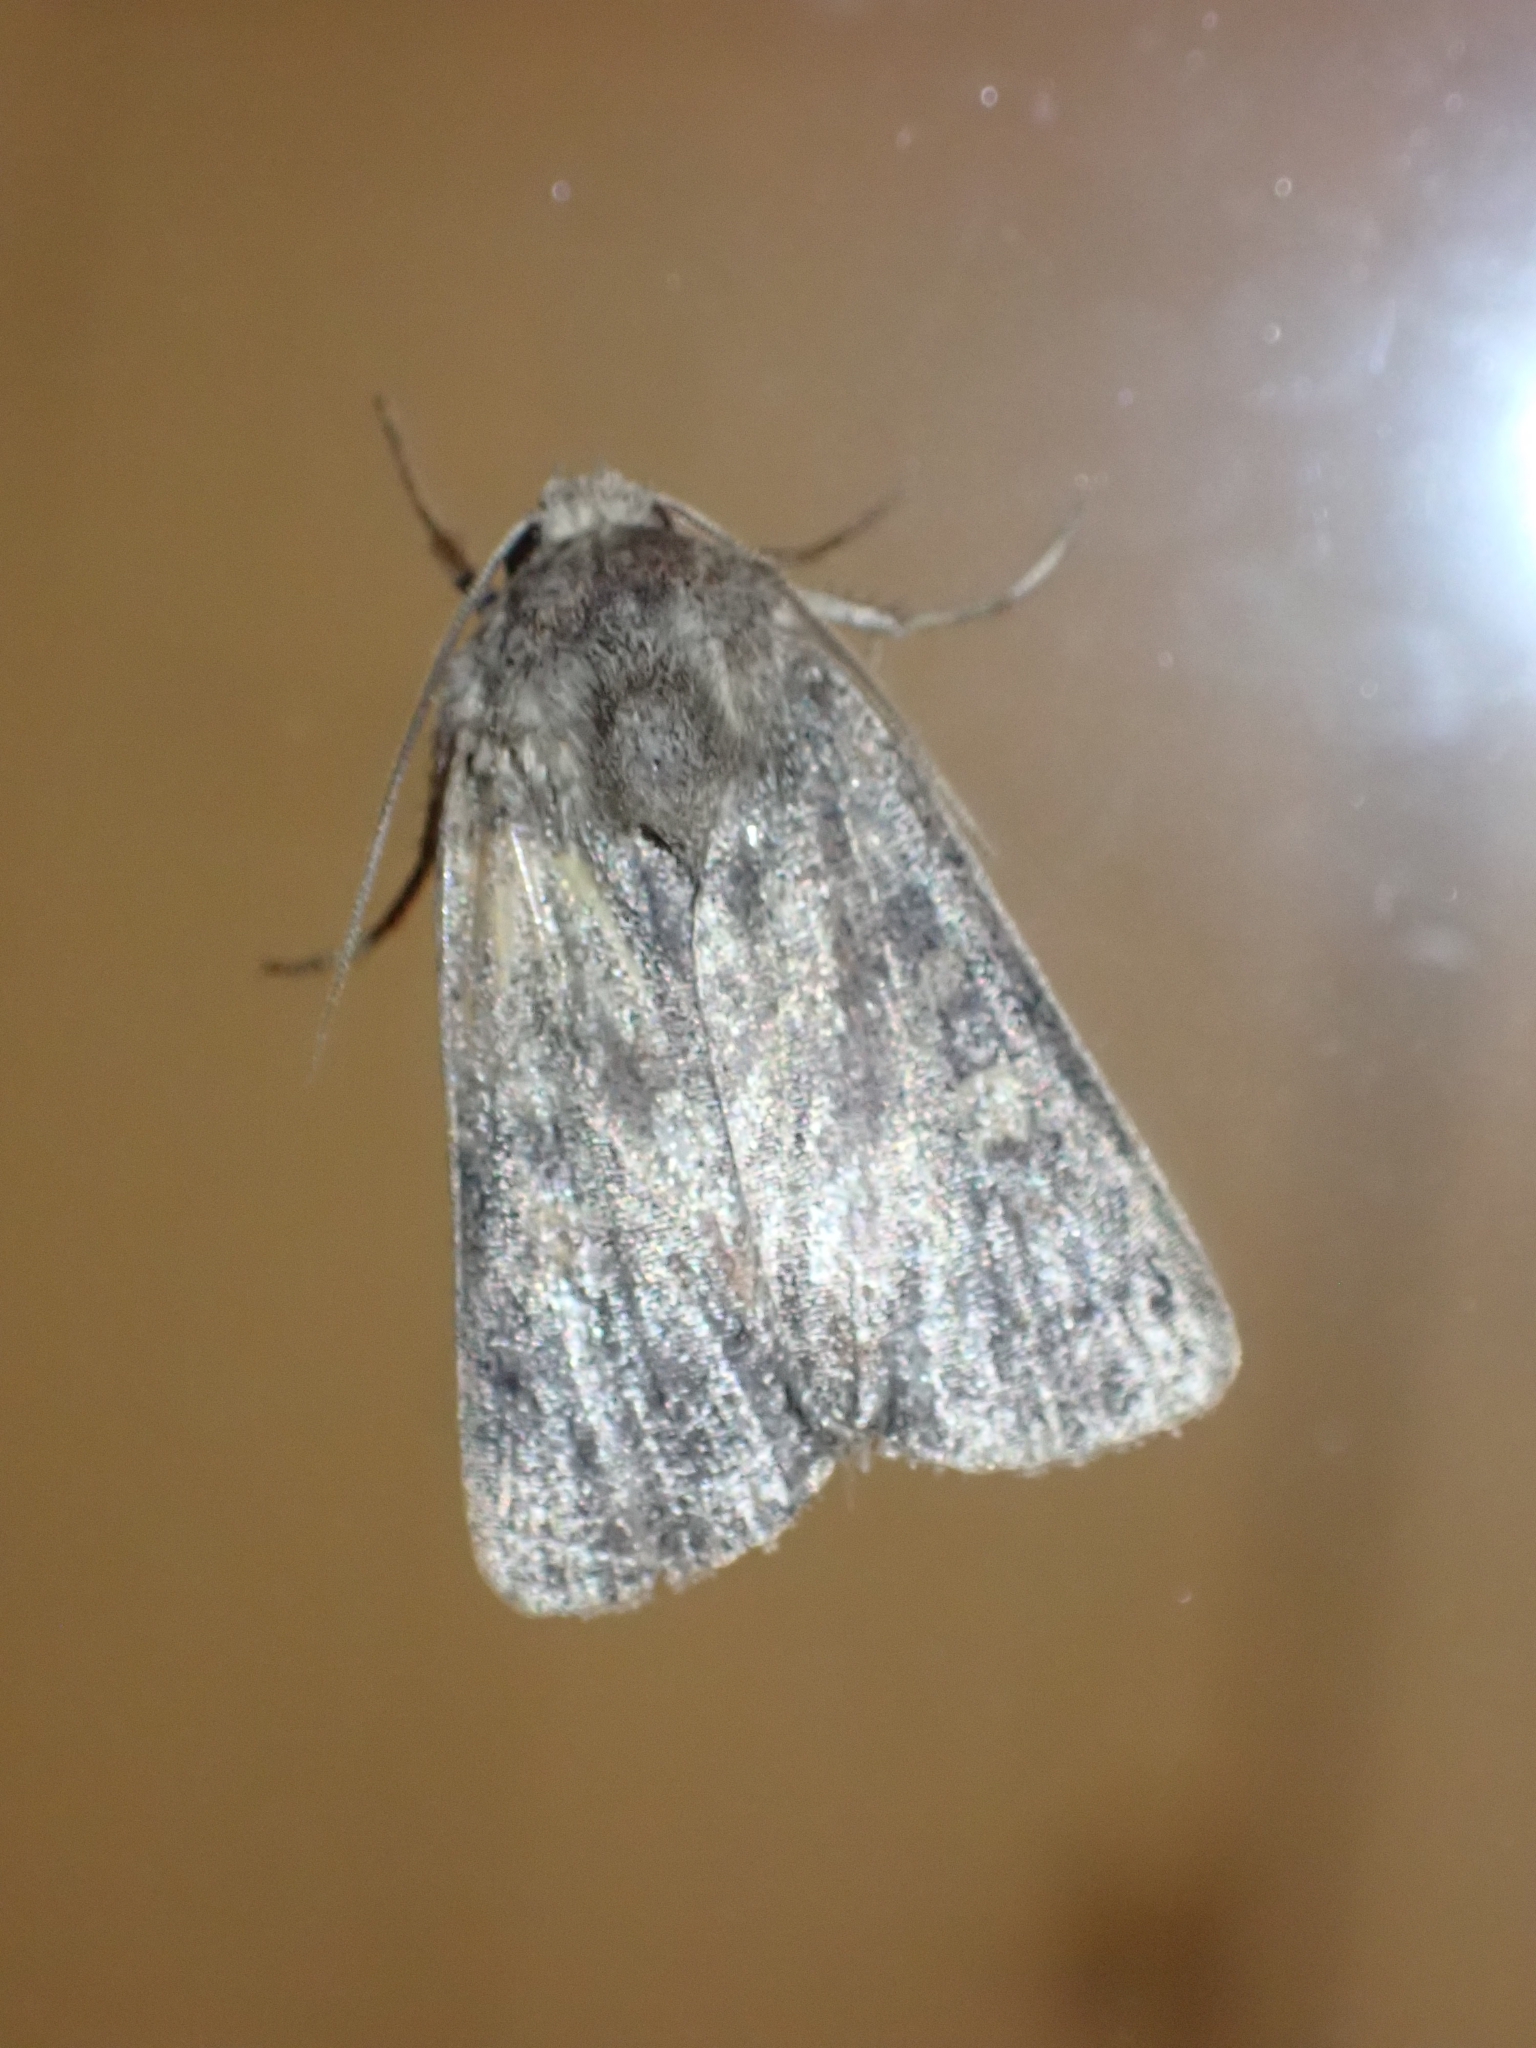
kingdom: Animalia
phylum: Arthropoda
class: Insecta
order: Lepidoptera
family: Noctuidae
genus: Xestia
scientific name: Xestia xanthographa
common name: Square-spot rustic
